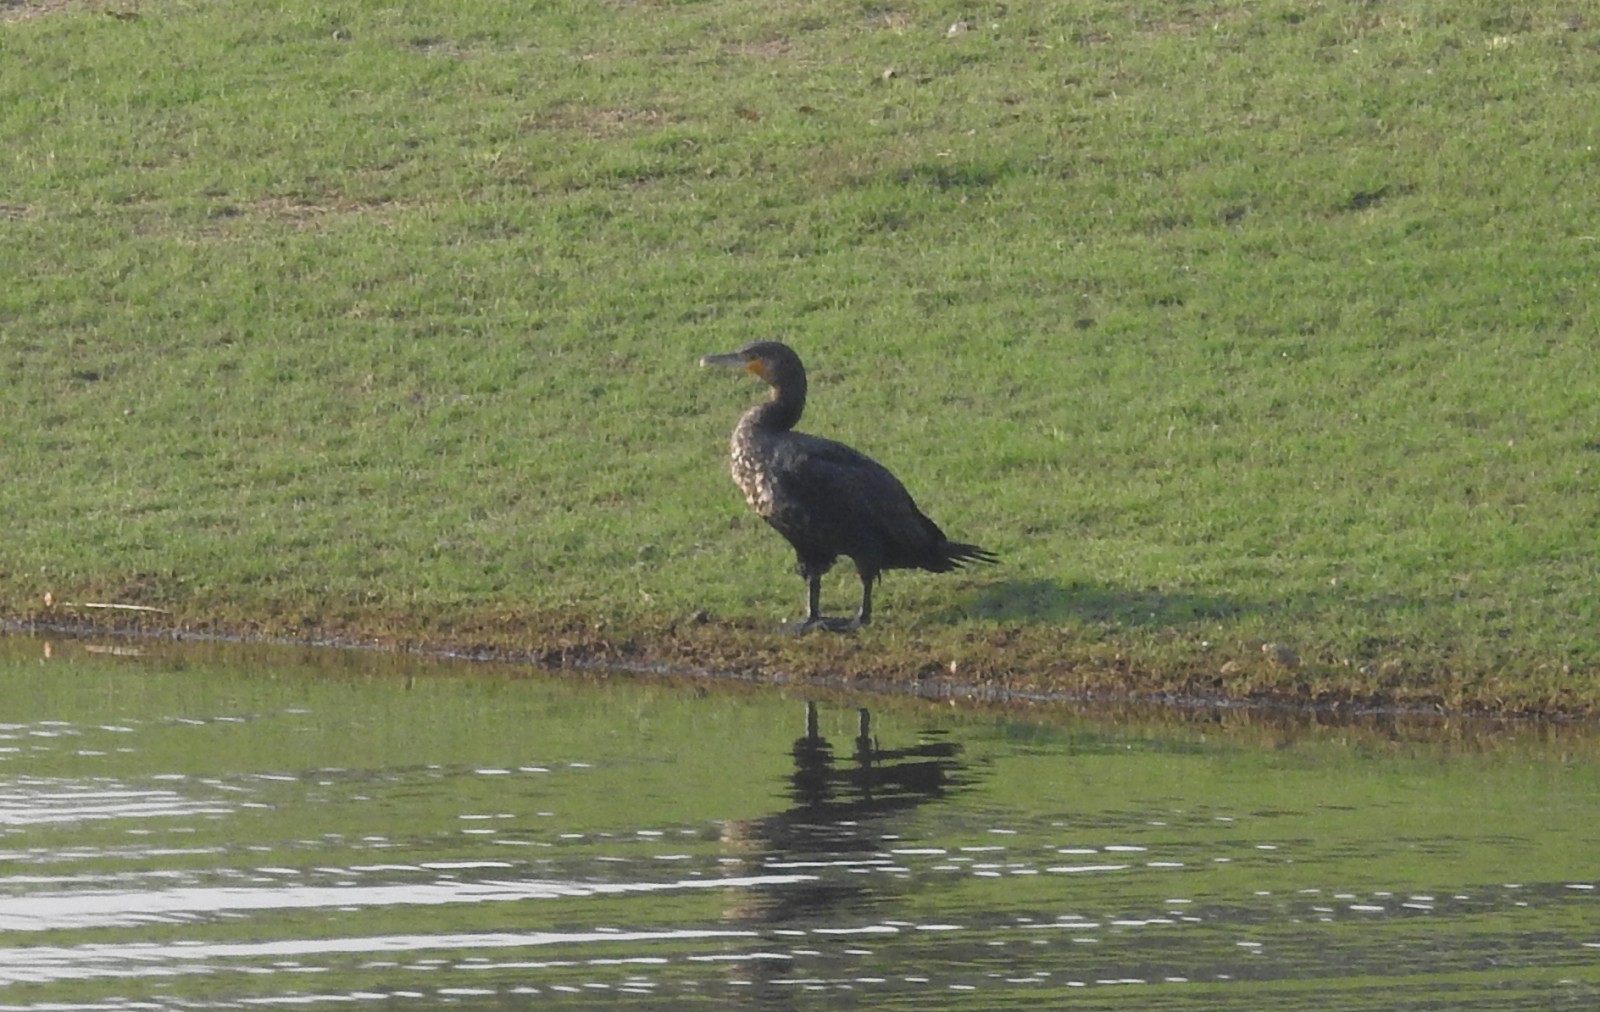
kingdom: Animalia
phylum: Chordata
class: Aves
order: Suliformes
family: Phalacrocoracidae
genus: Phalacrocorax
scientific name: Phalacrocorax carbo
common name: Great cormorant
